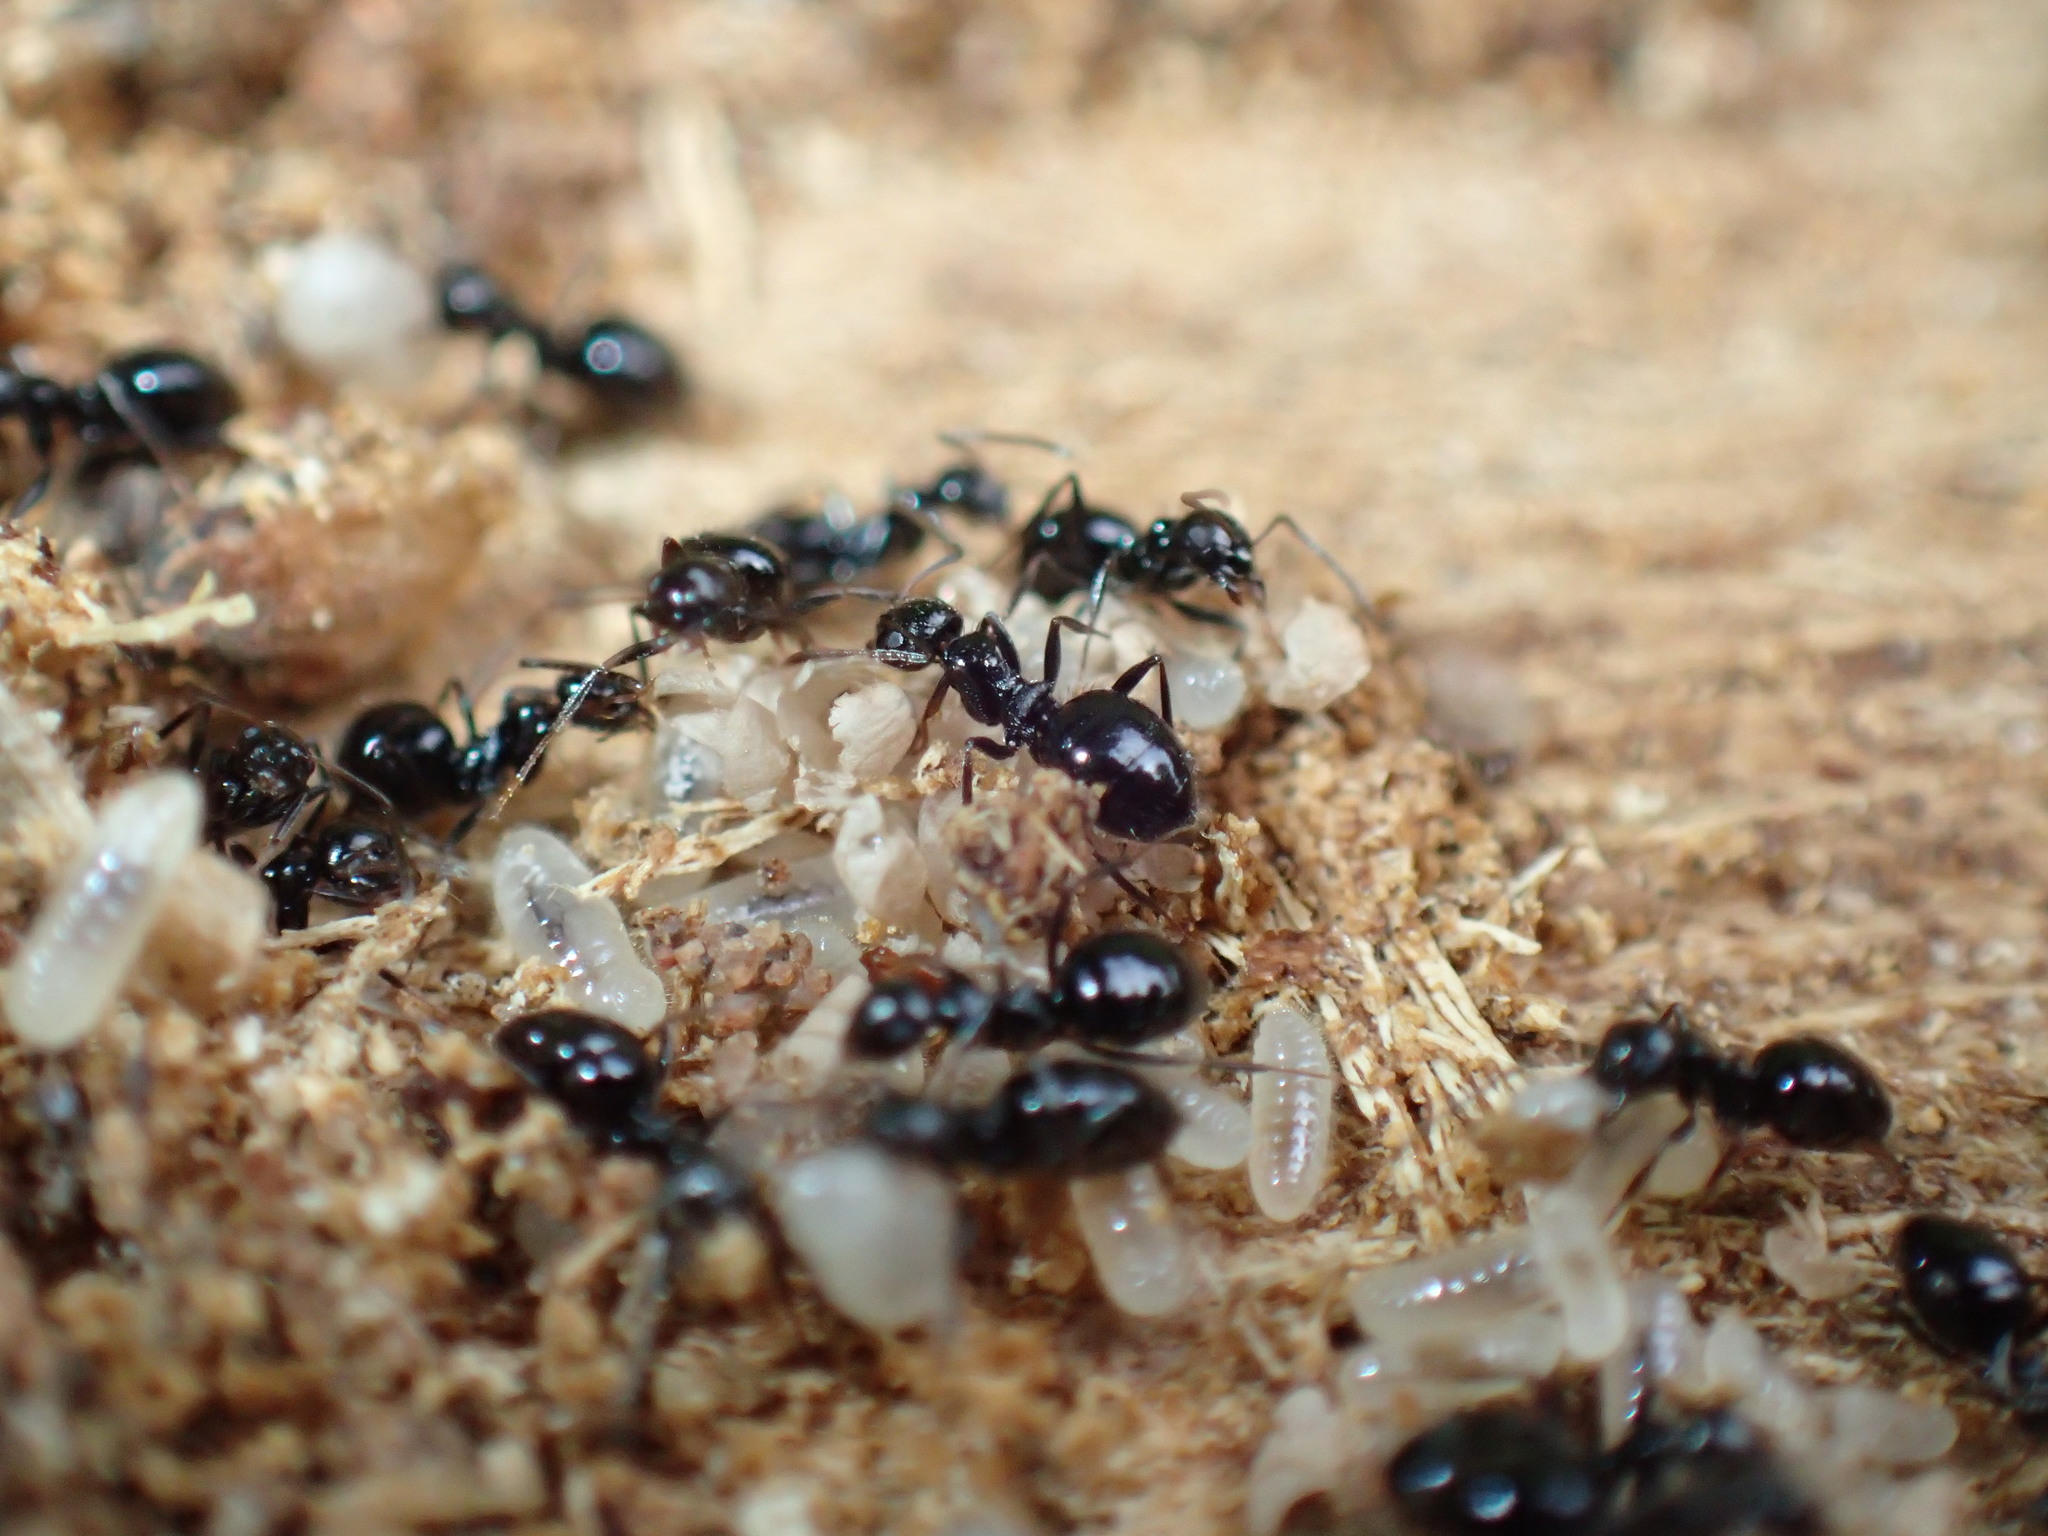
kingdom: Animalia
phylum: Arthropoda
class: Insecta
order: Hymenoptera
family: Formicidae
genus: Lepisiota
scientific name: Lepisiota capensis
